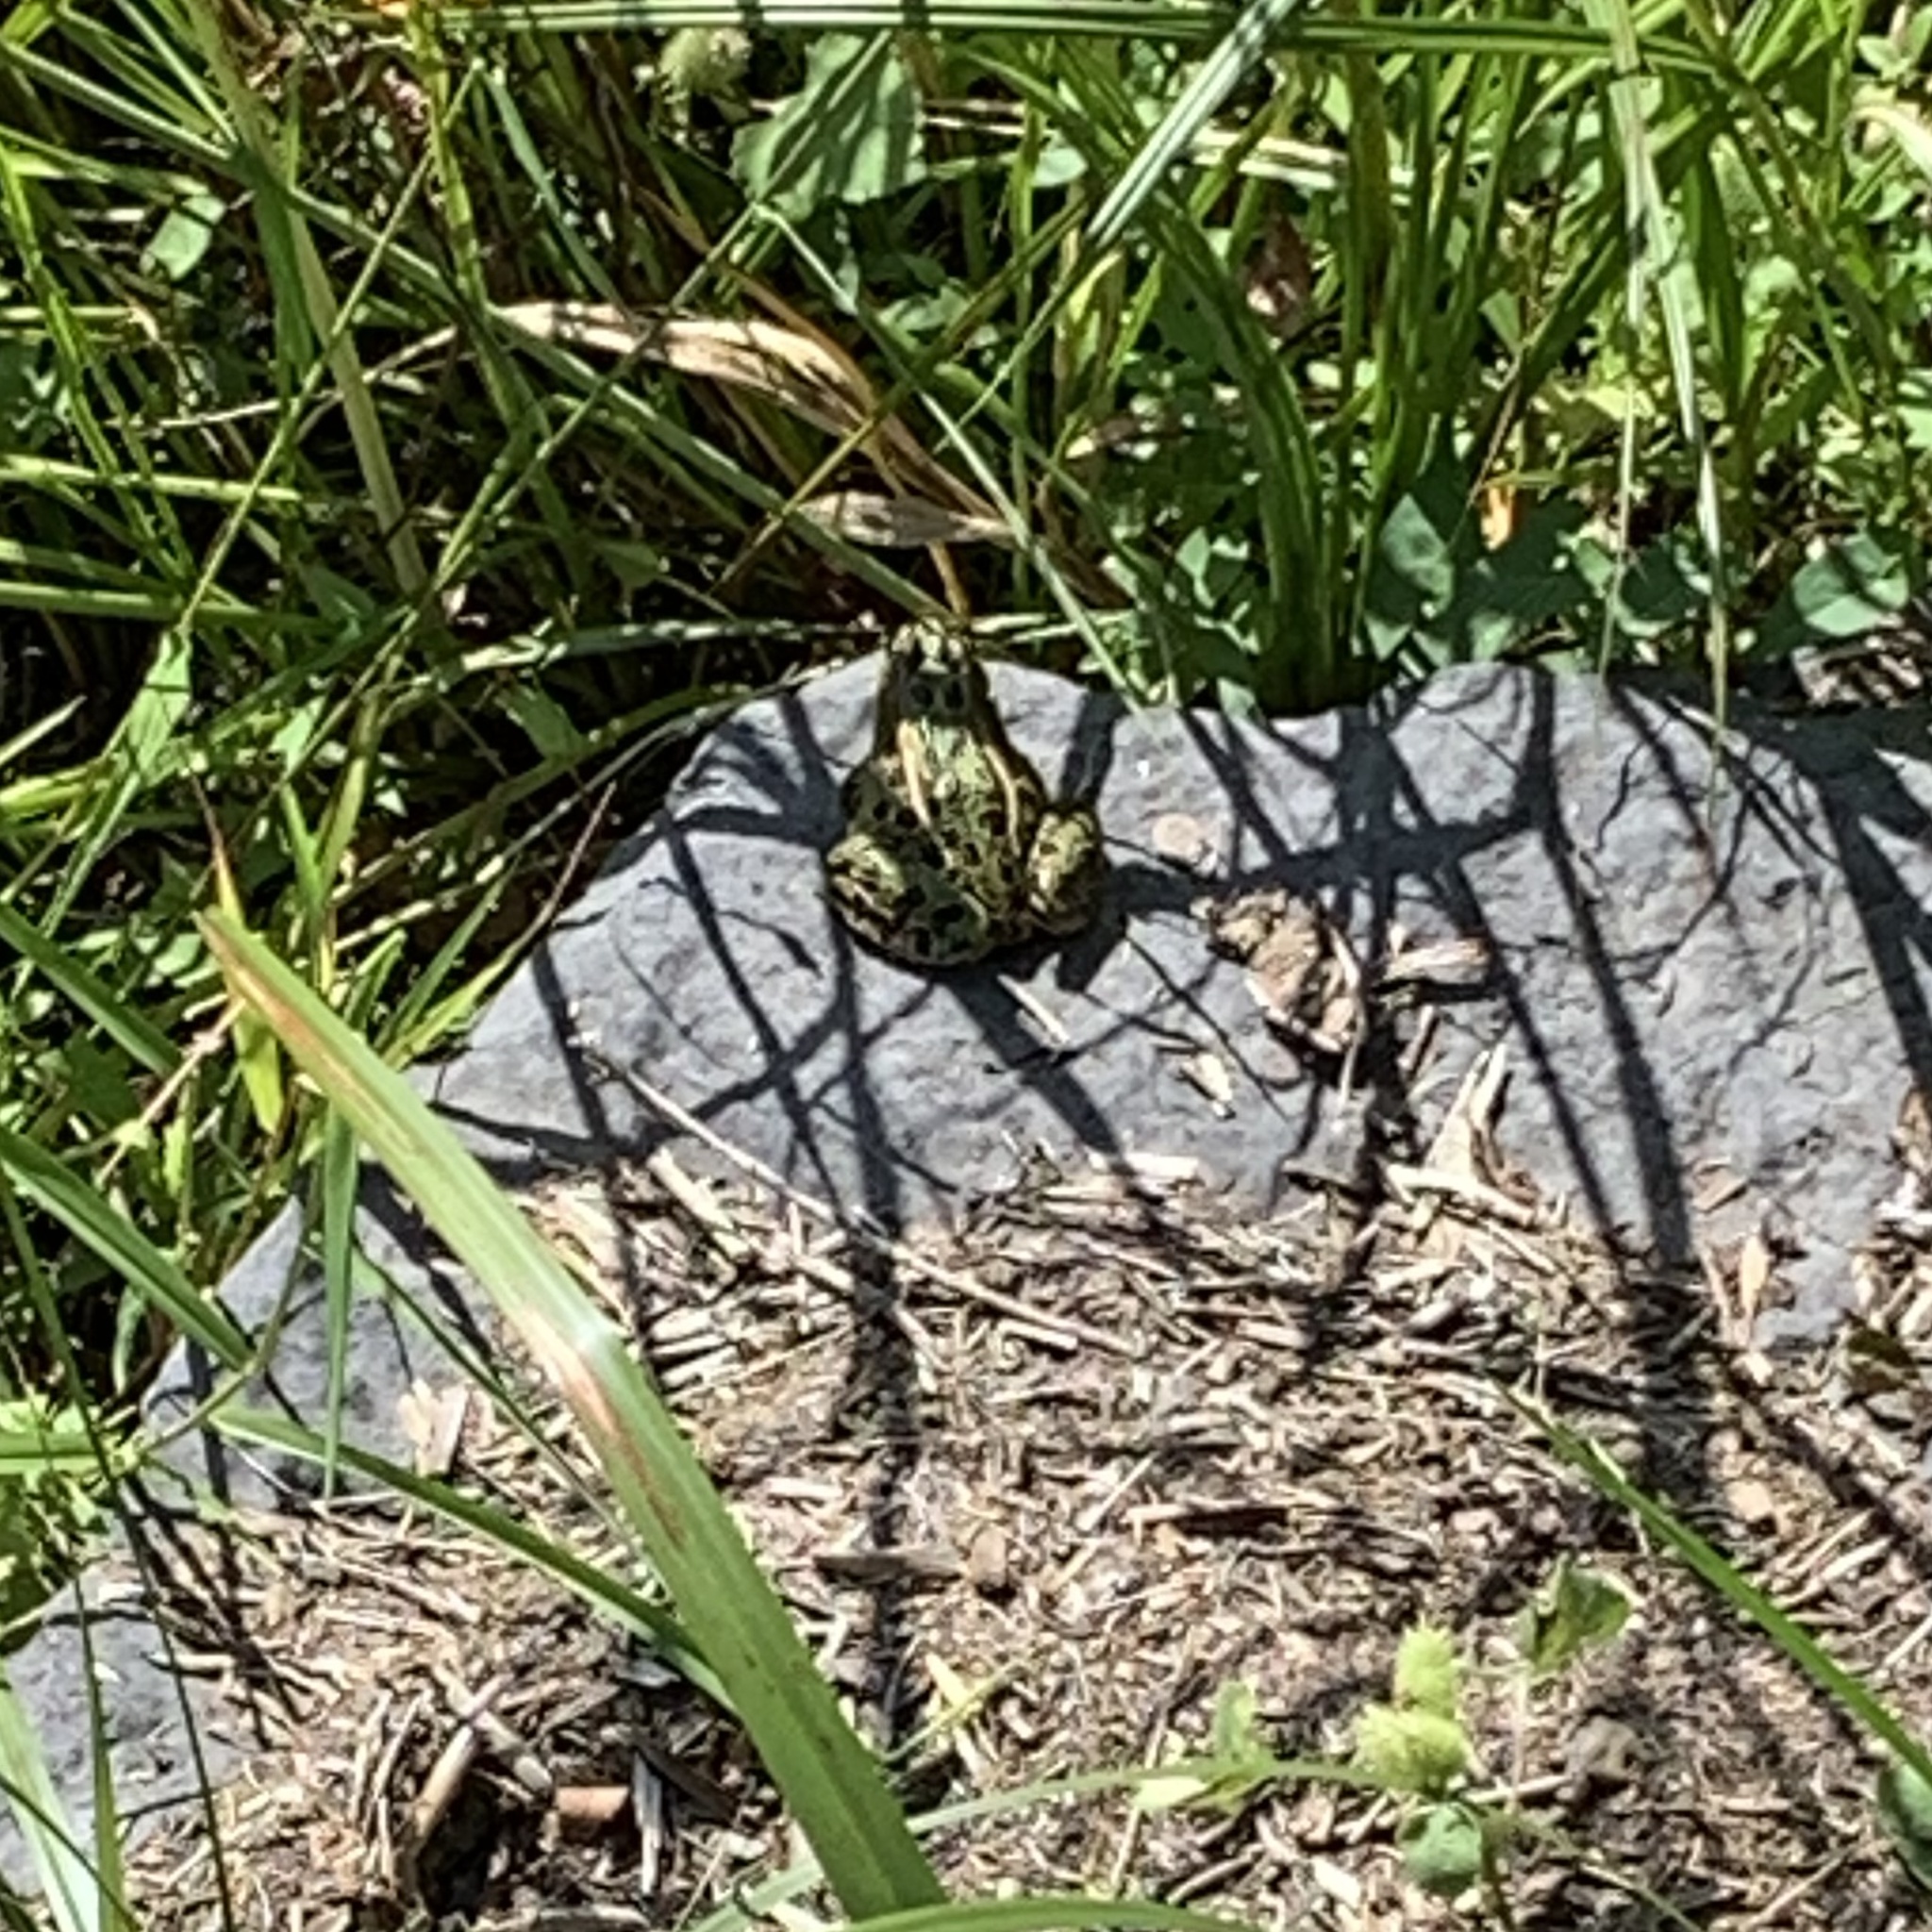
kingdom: Animalia
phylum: Chordata
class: Amphibia
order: Anura
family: Ranidae
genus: Lithobates
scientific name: Lithobates pipiens
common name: Northern leopard frog
